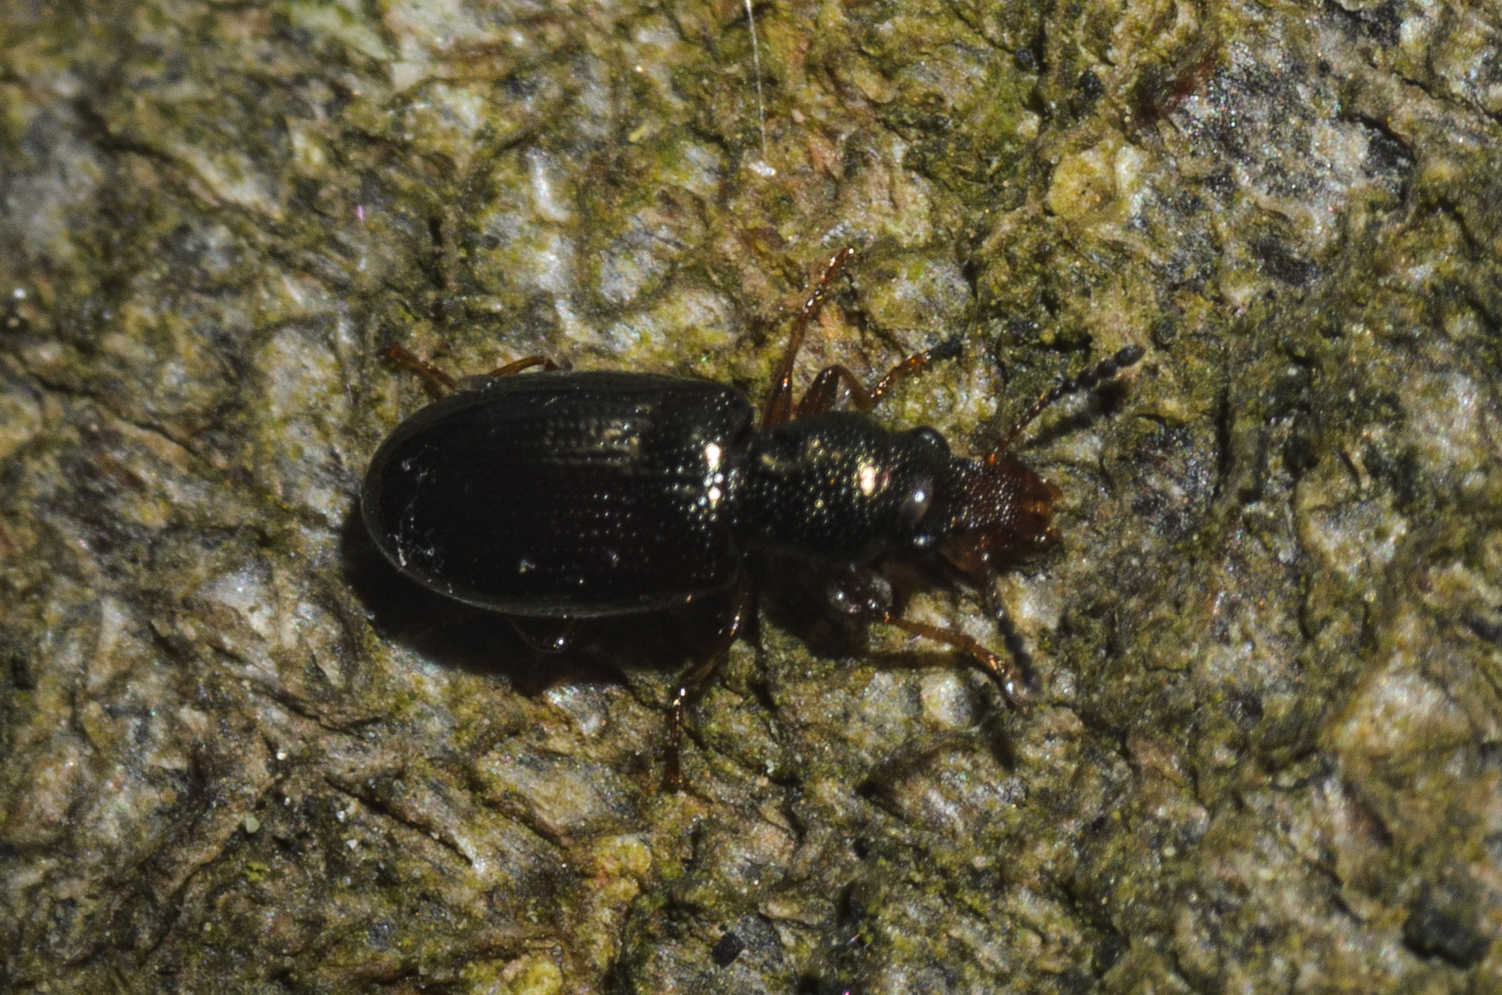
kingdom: Animalia
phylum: Arthropoda
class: Insecta
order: Coleoptera
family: Salpingidae
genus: Salpingus
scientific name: Salpingus planirostris
